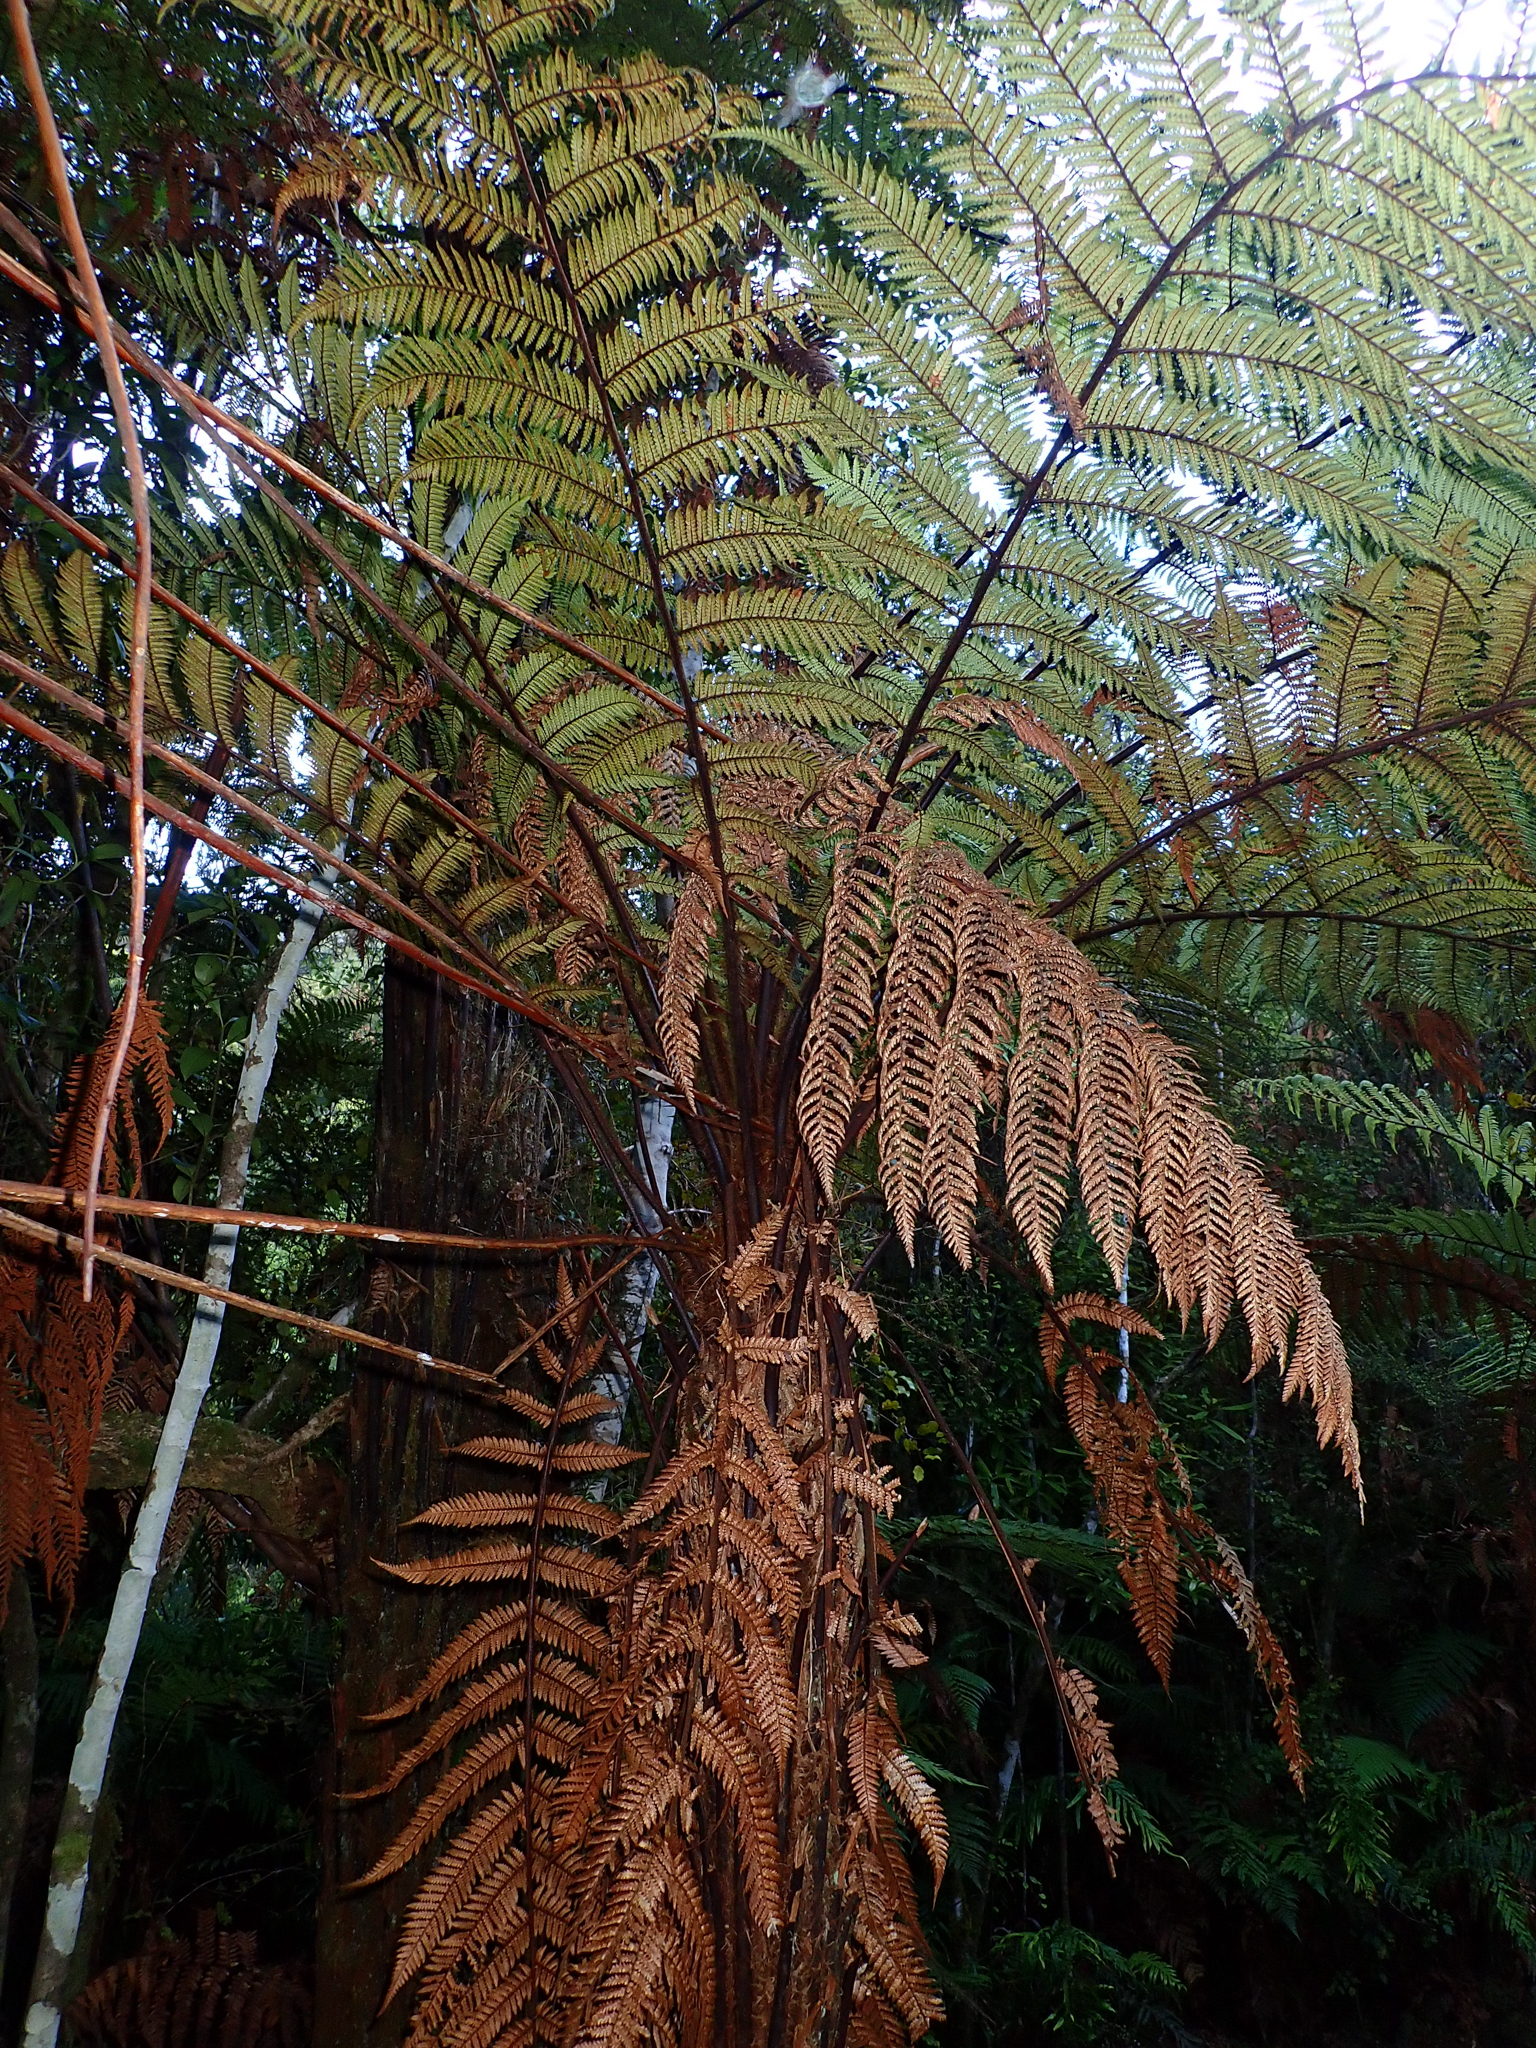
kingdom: Plantae
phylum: Tracheophyta
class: Polypodiopsida
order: Cyatheales
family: Dicksoniaceae
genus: Dicksonia
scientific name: Dicksonia squarrosa
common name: Hard treefern
